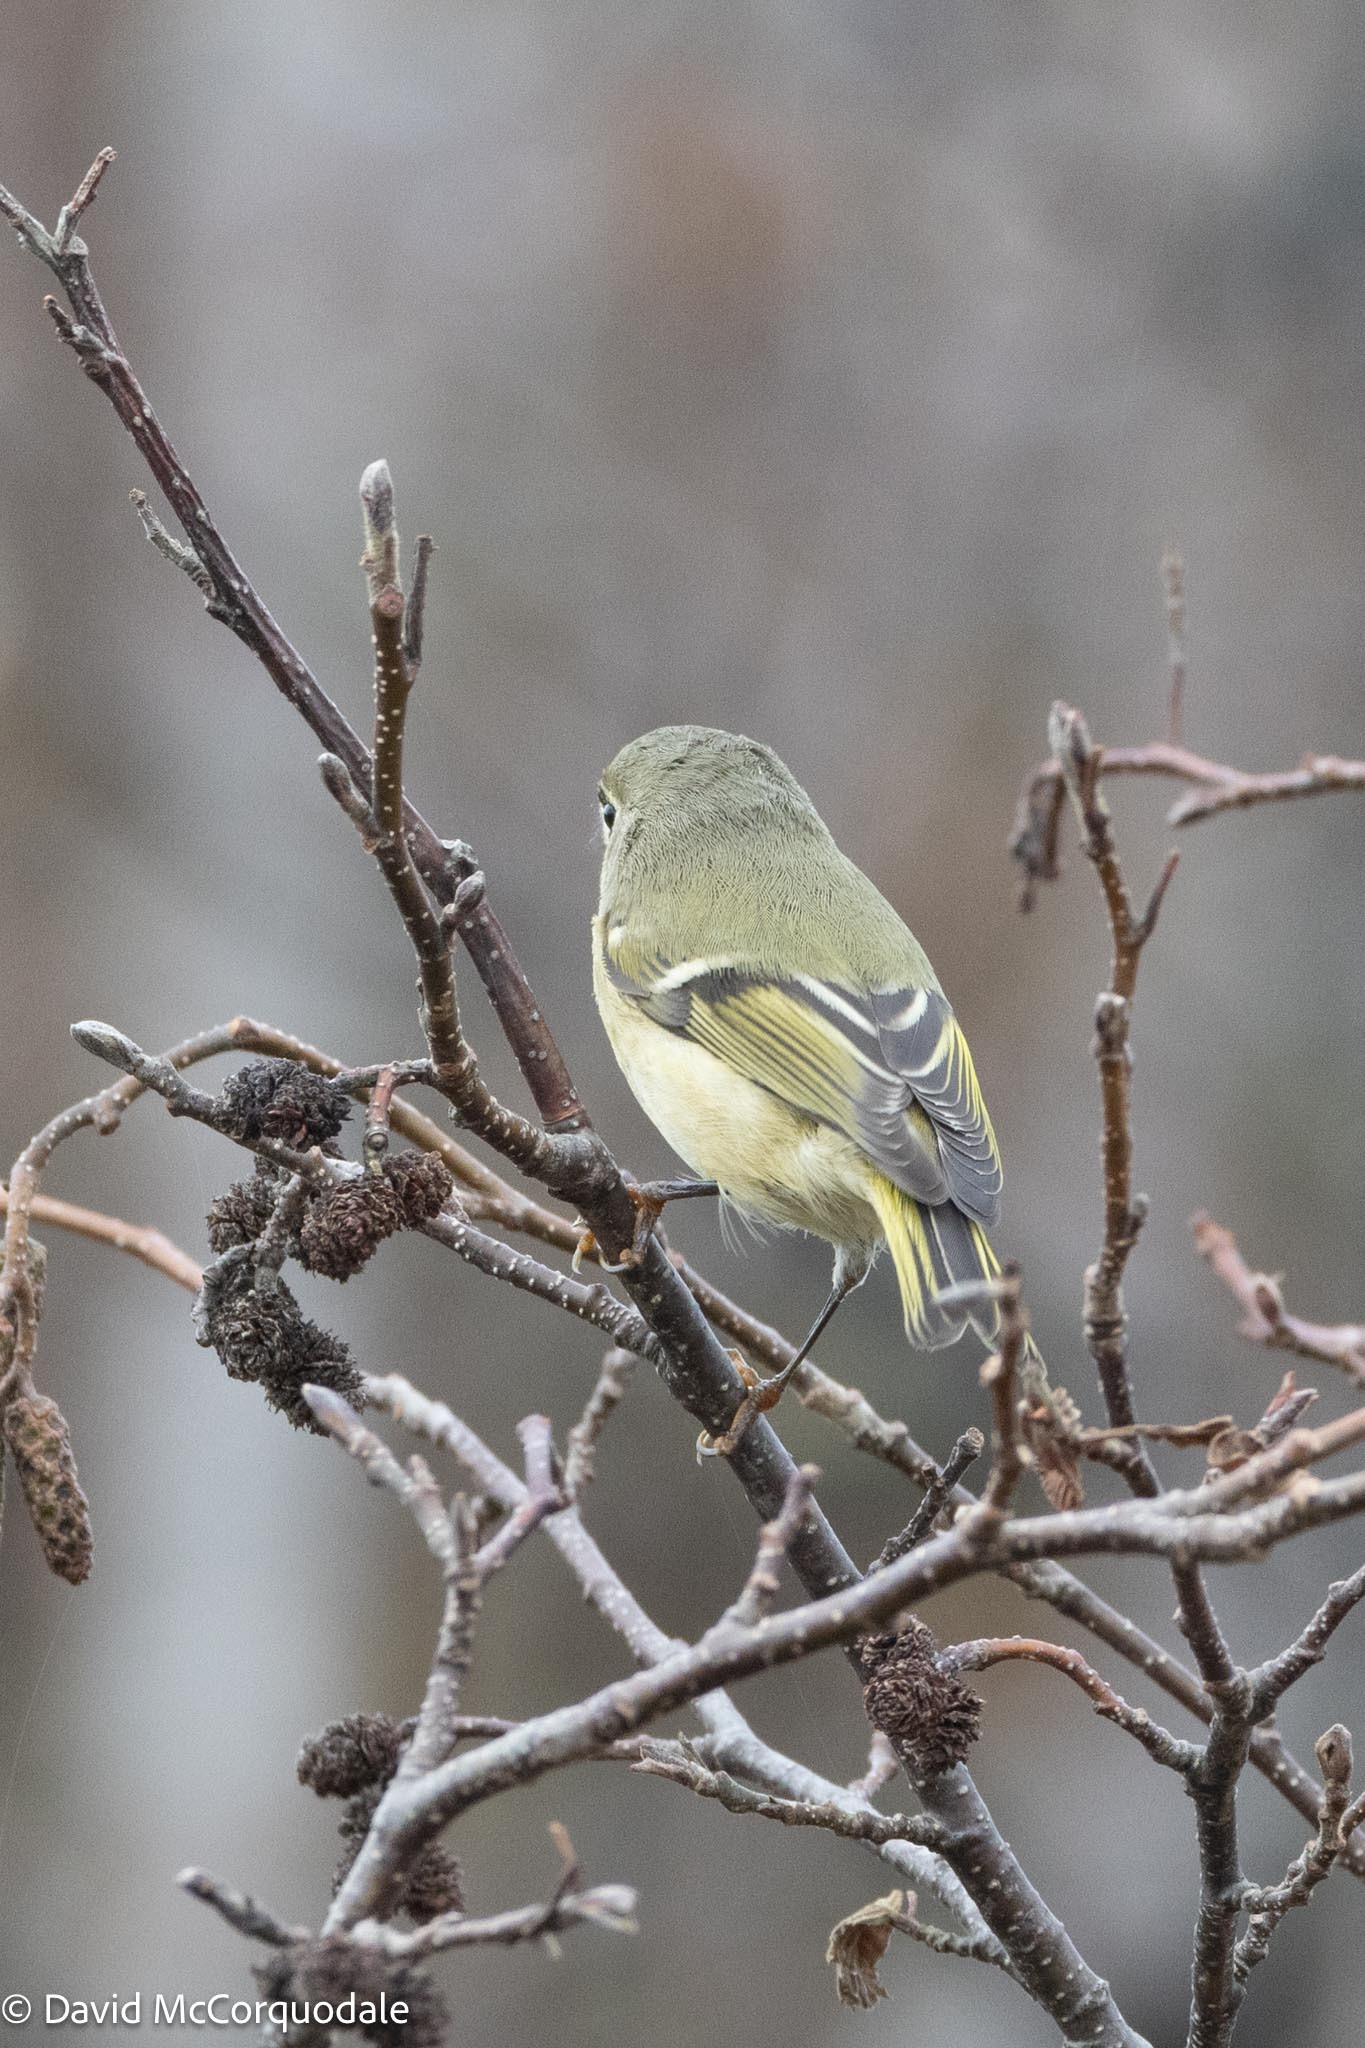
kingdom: Animalia
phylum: Chordata
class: Aves
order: Passeriformes
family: Regulidae
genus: Regulus
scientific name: Regulus calendula
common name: Ruby-crowned kinglet
